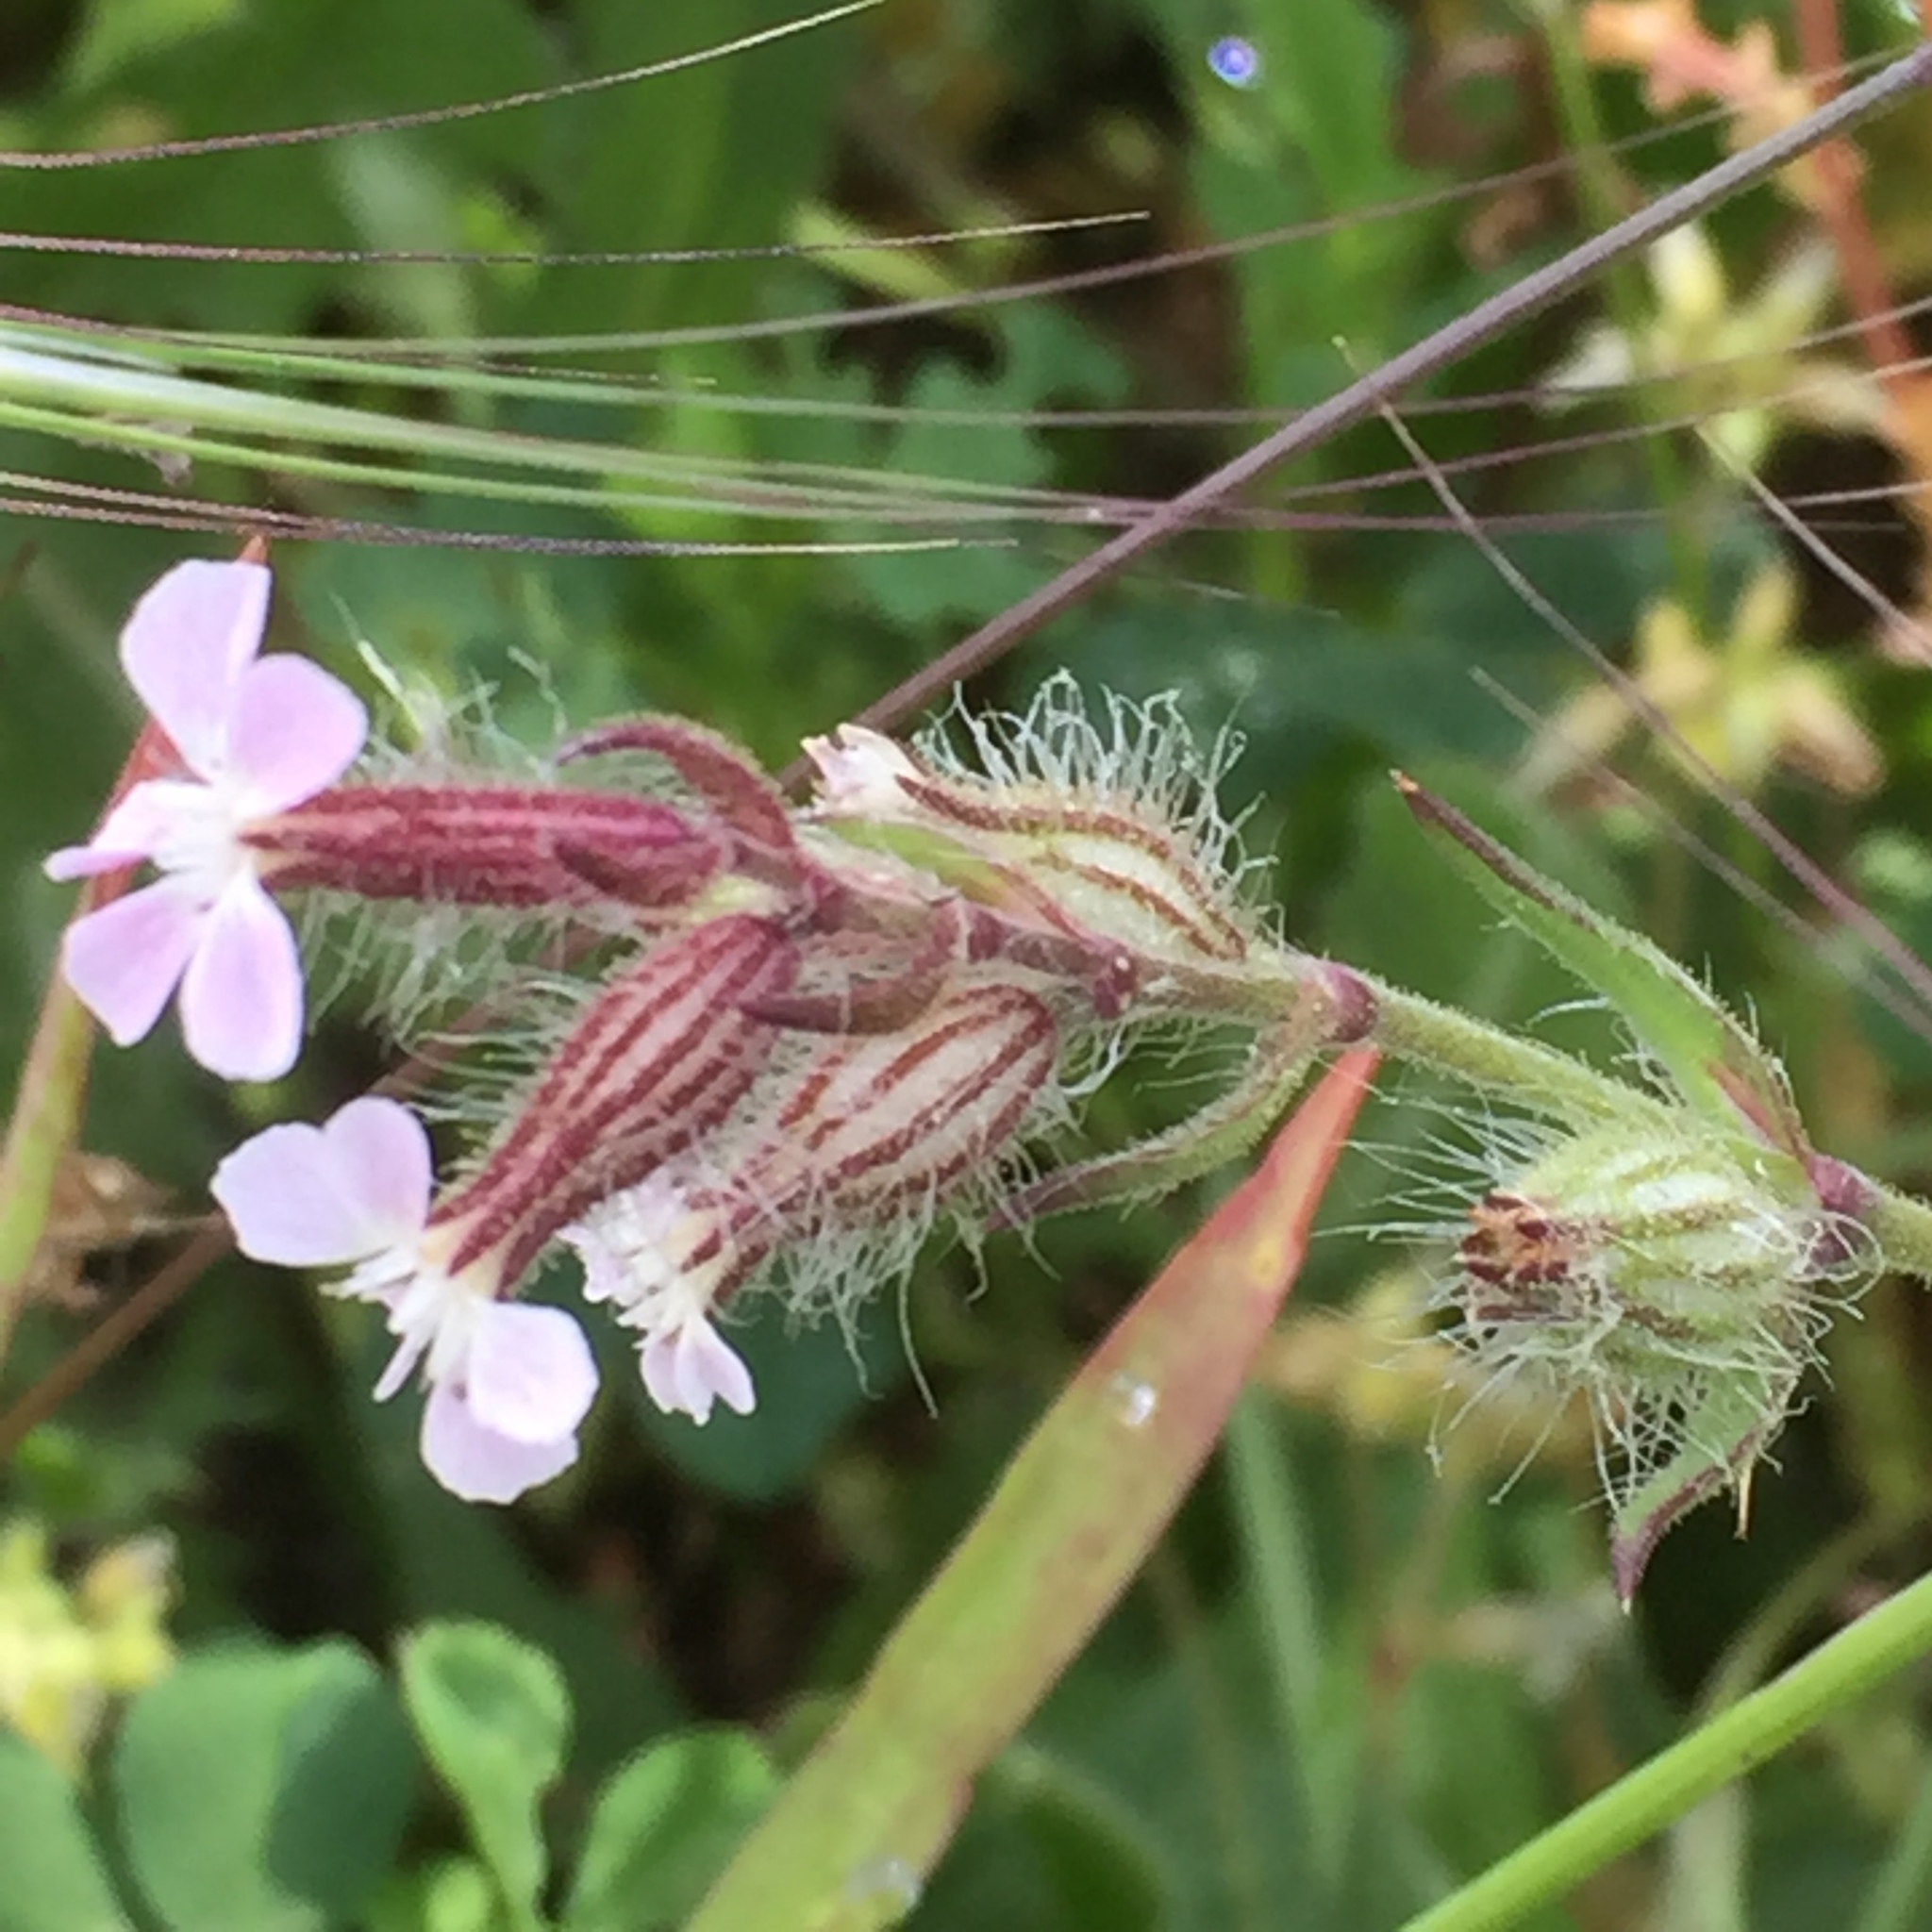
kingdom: Plantae
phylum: Tracheophyta
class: Magnoliopsida
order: Caryophyllales
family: Caryophyllaceae
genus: Silene
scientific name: Silene gallica
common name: Small-flowered catchfly
